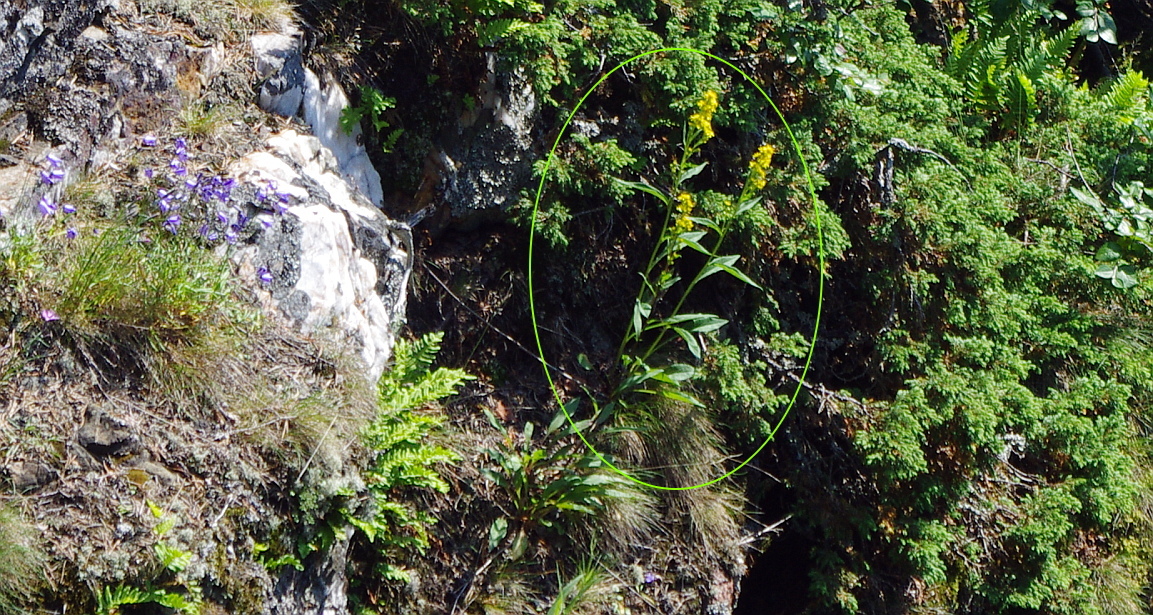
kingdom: Plantae
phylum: Tracheophyta
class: Magnoliopsida
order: Asterales
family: Asteraceae
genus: Solidago
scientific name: Solidago virgaurea
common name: Goldenrod
